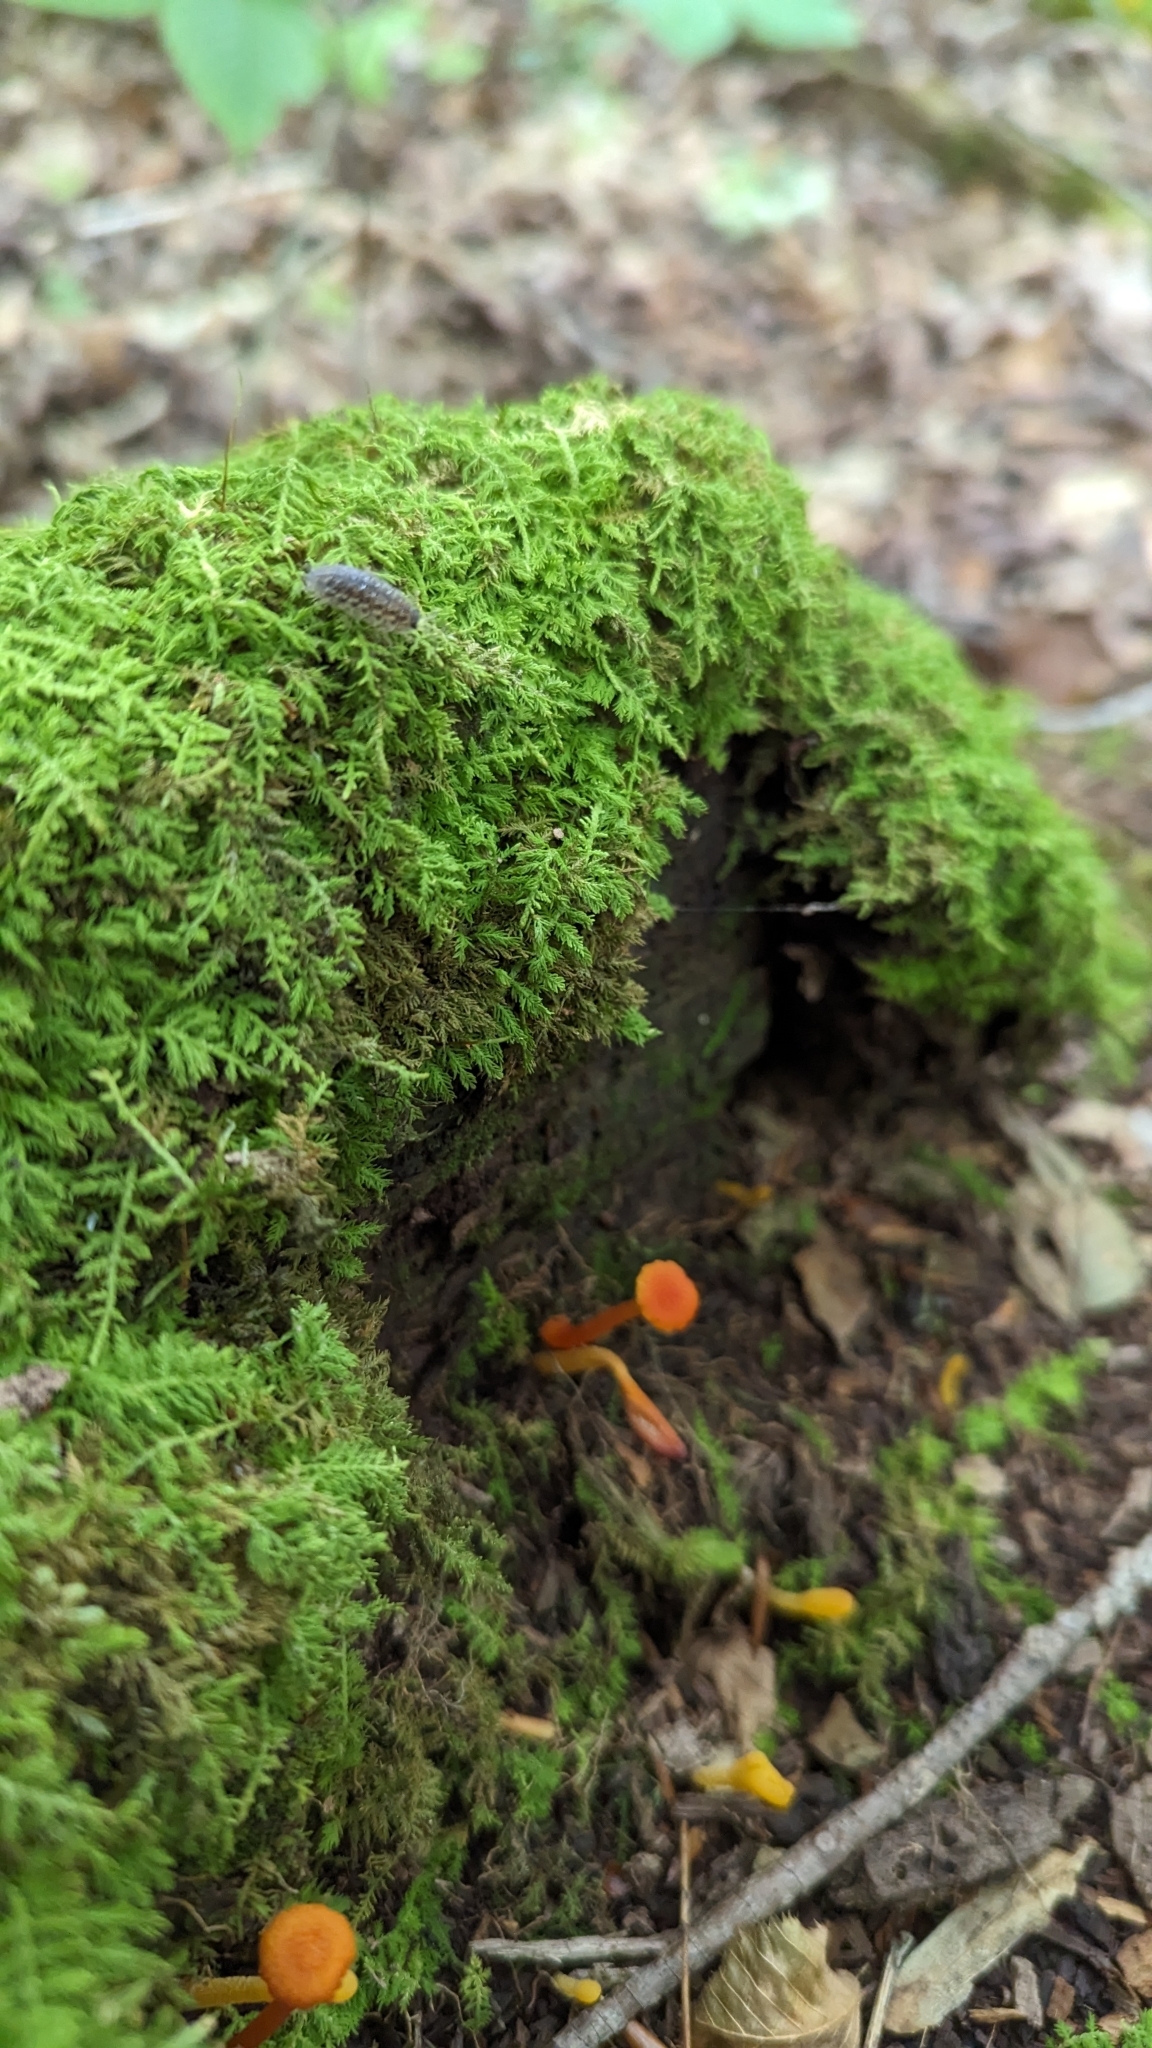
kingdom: Fungi
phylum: Basidiomycota
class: Agaricomycetes
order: Agaricales
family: Hygrophoraceae
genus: Hygrocybe
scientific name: Hygrocybe cantharellus
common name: Goblet waxcap
